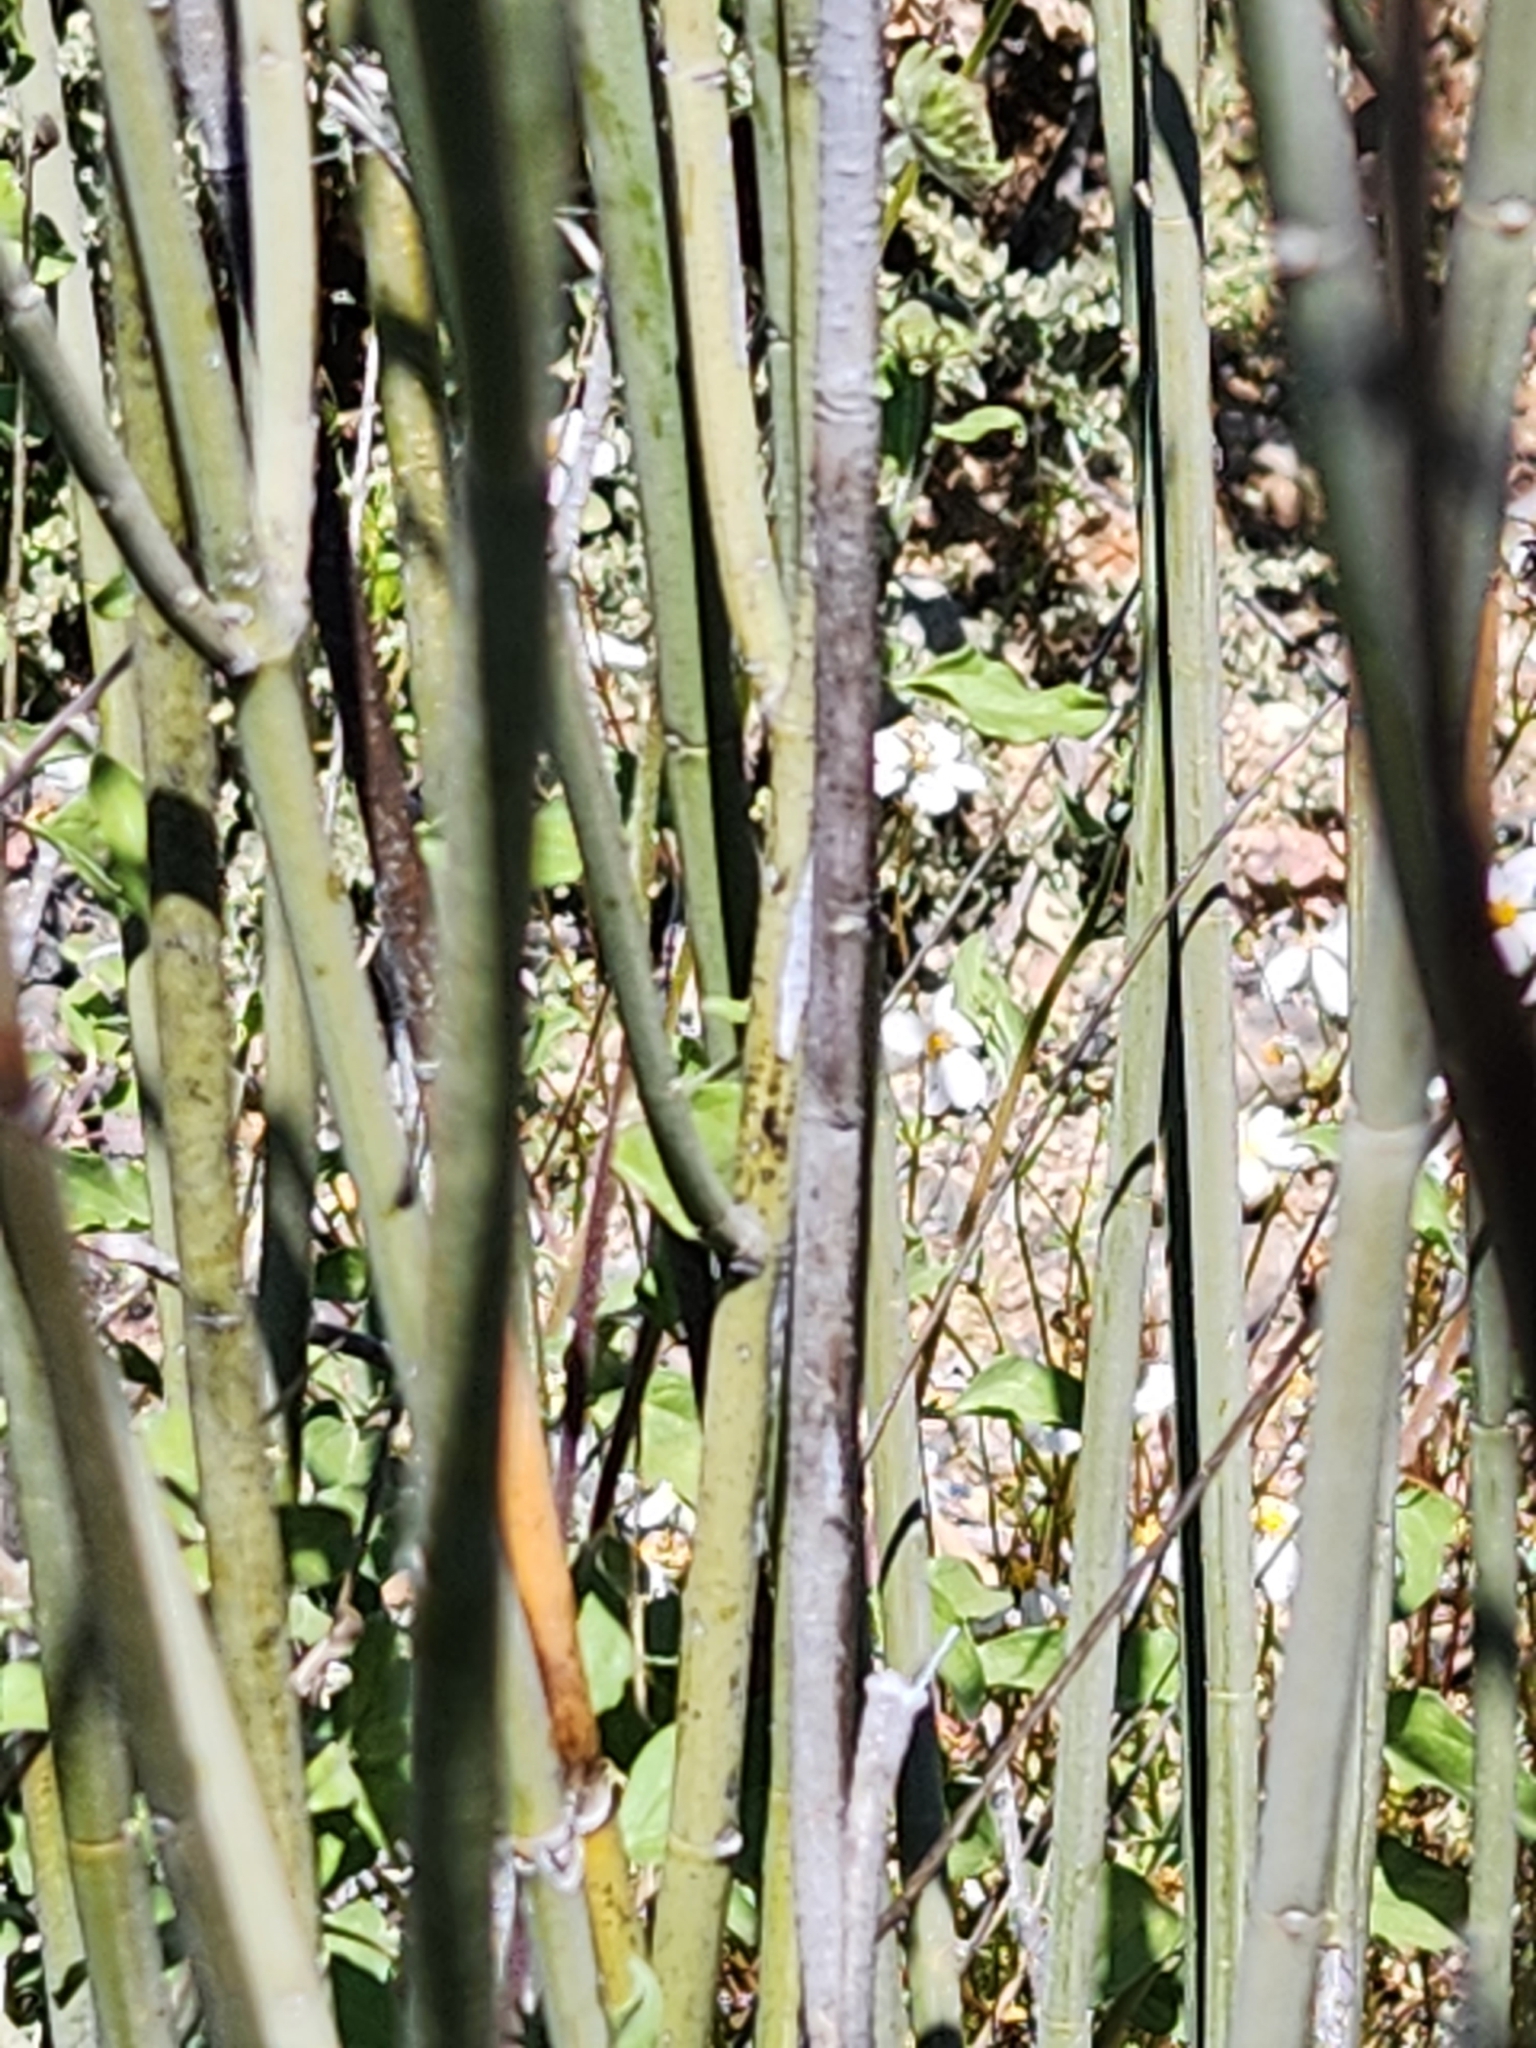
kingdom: Plantae
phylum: Tracheophyta
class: Magnoliopsida
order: Malpighiales
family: Euphorbiaceae
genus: Euphorbia
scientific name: Euphorbia lomelii
